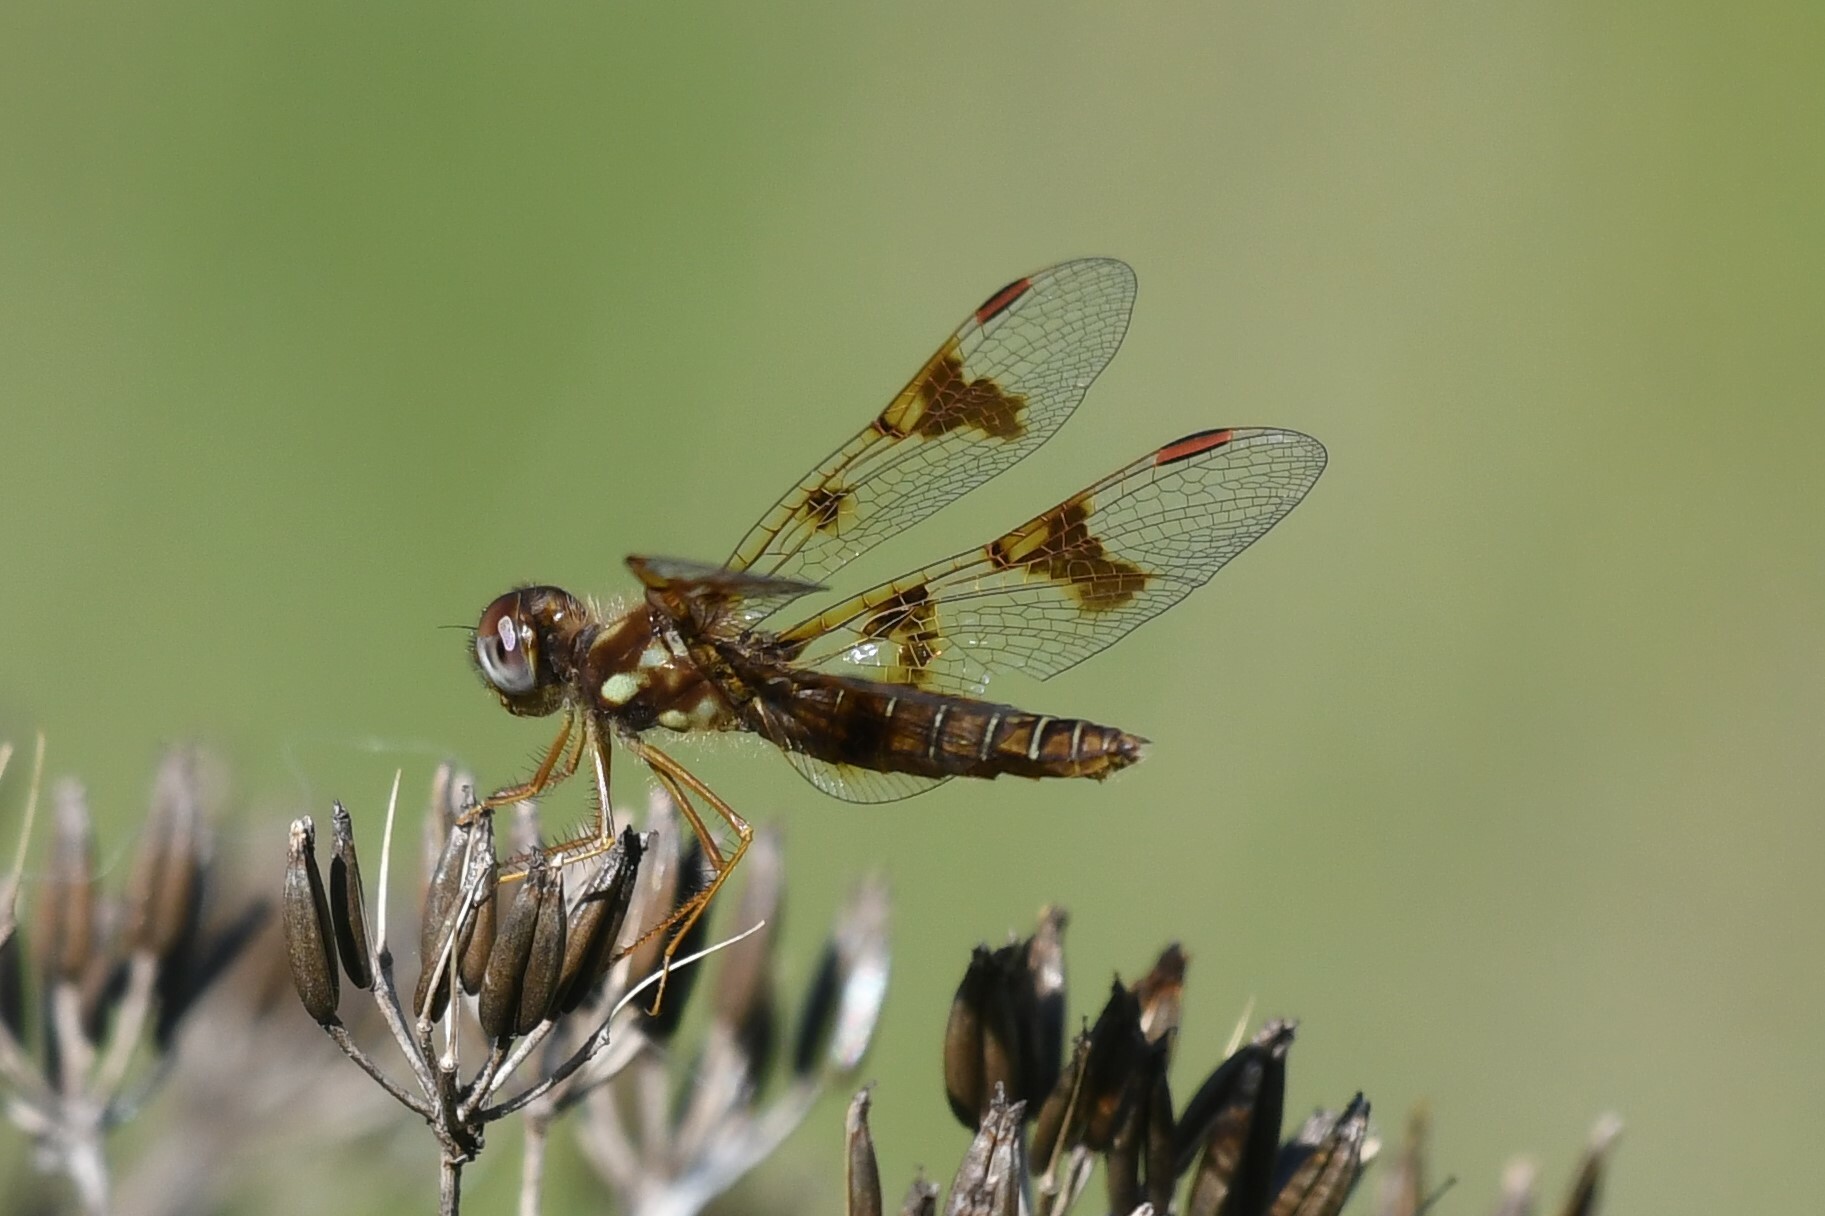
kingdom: Animalia
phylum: Arthropoda
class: Insecta
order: Odonata
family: Libellulidae
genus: Perithemis
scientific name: Perithemis tenera
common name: Eastern amberwing
